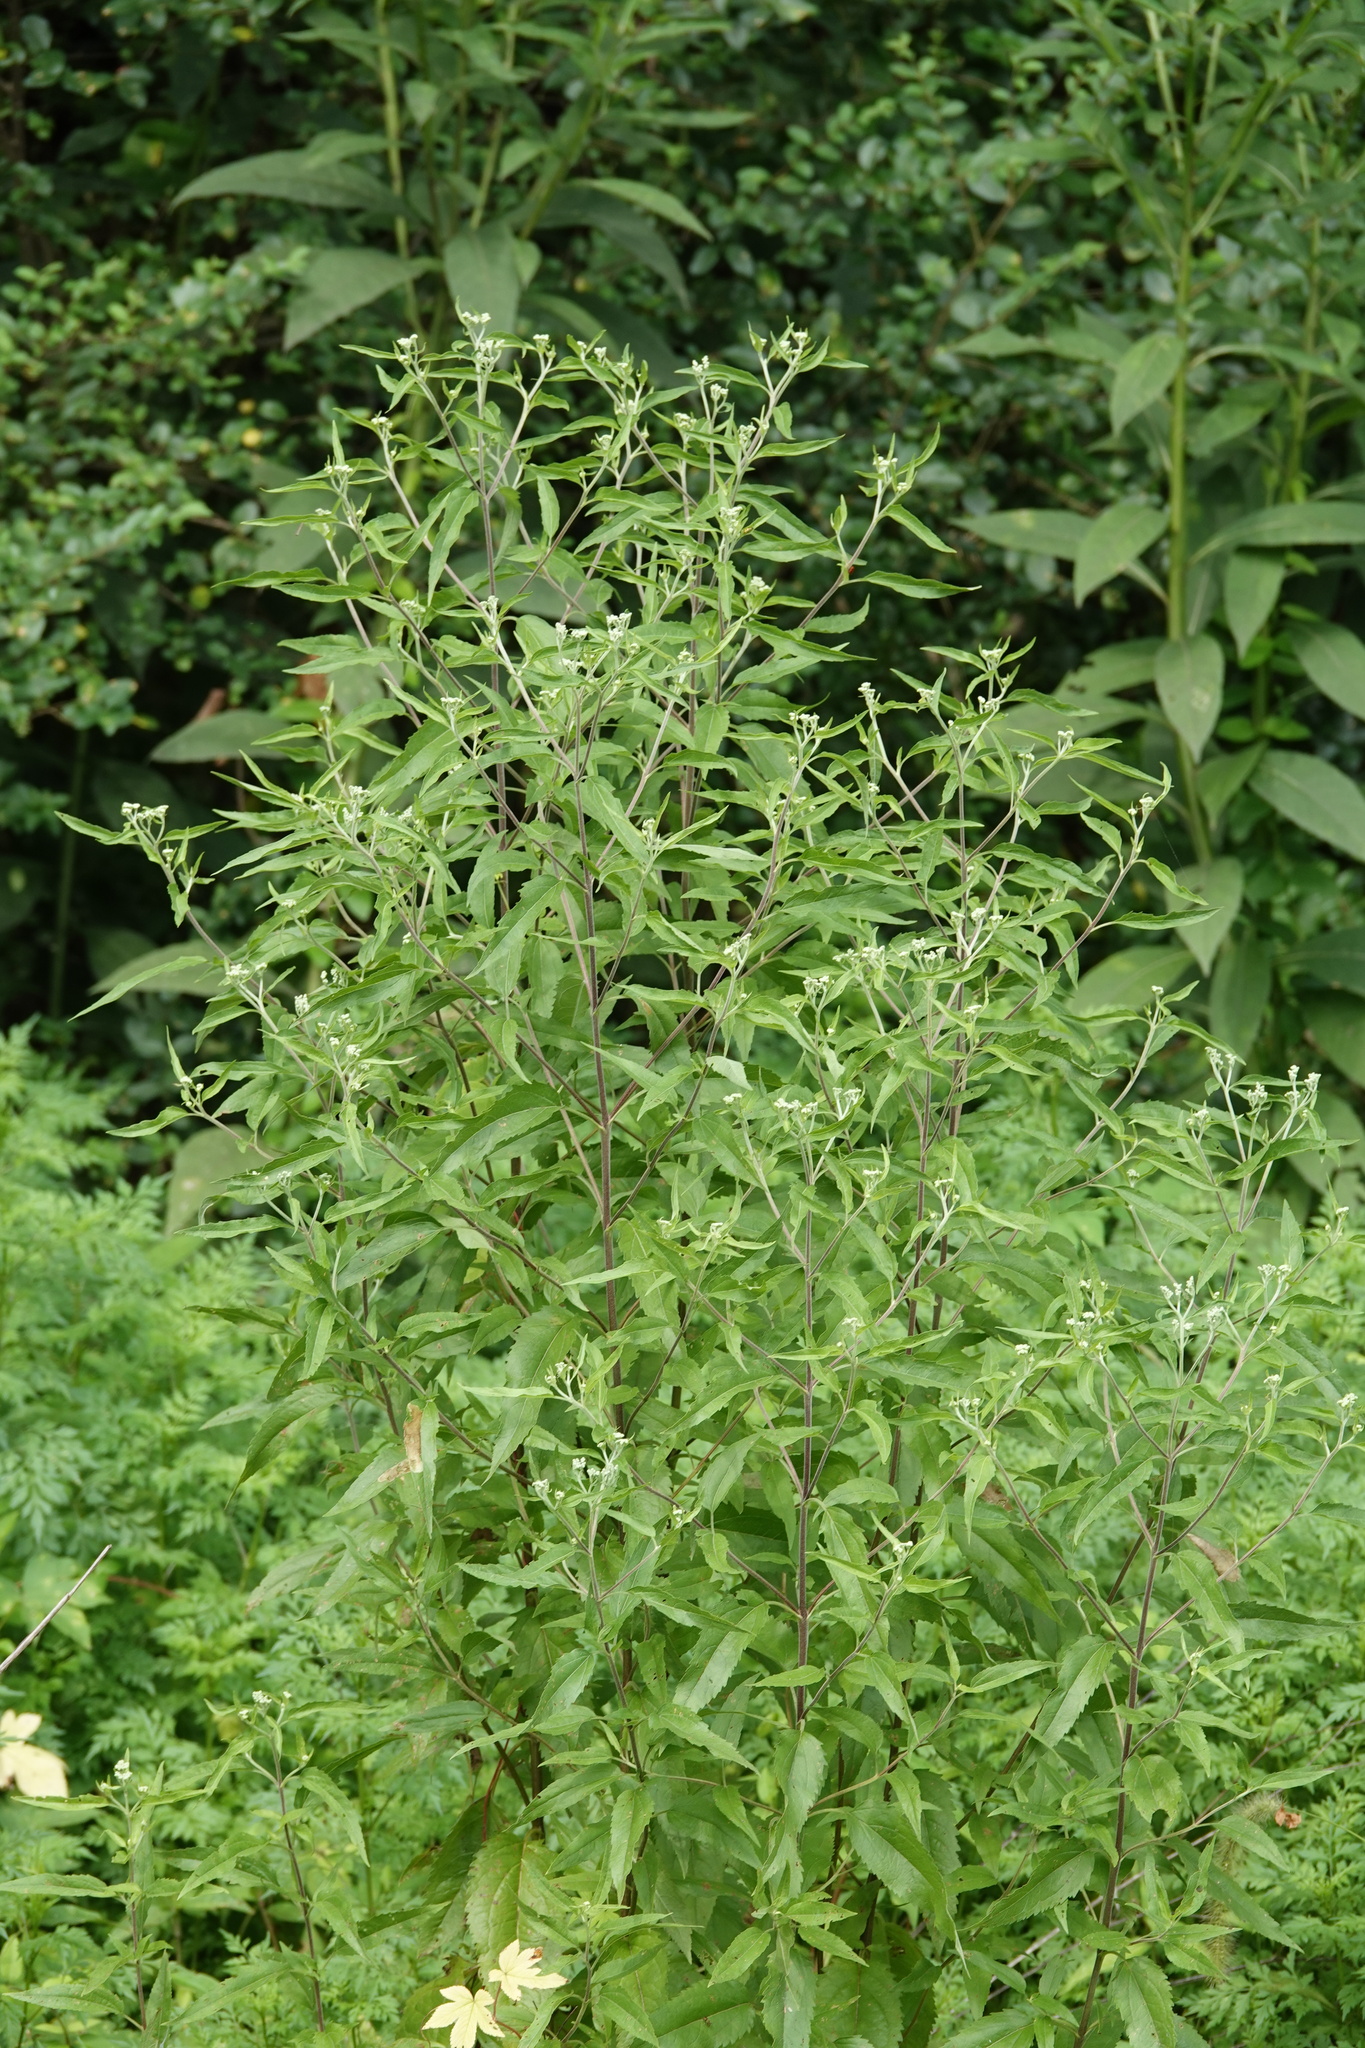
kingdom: Plantae
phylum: Tracheophyta
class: Magnoliopsida
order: Asterales
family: Asteraceae
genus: Eupatorium
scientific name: Eupatorium serotinum
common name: Late boneset
